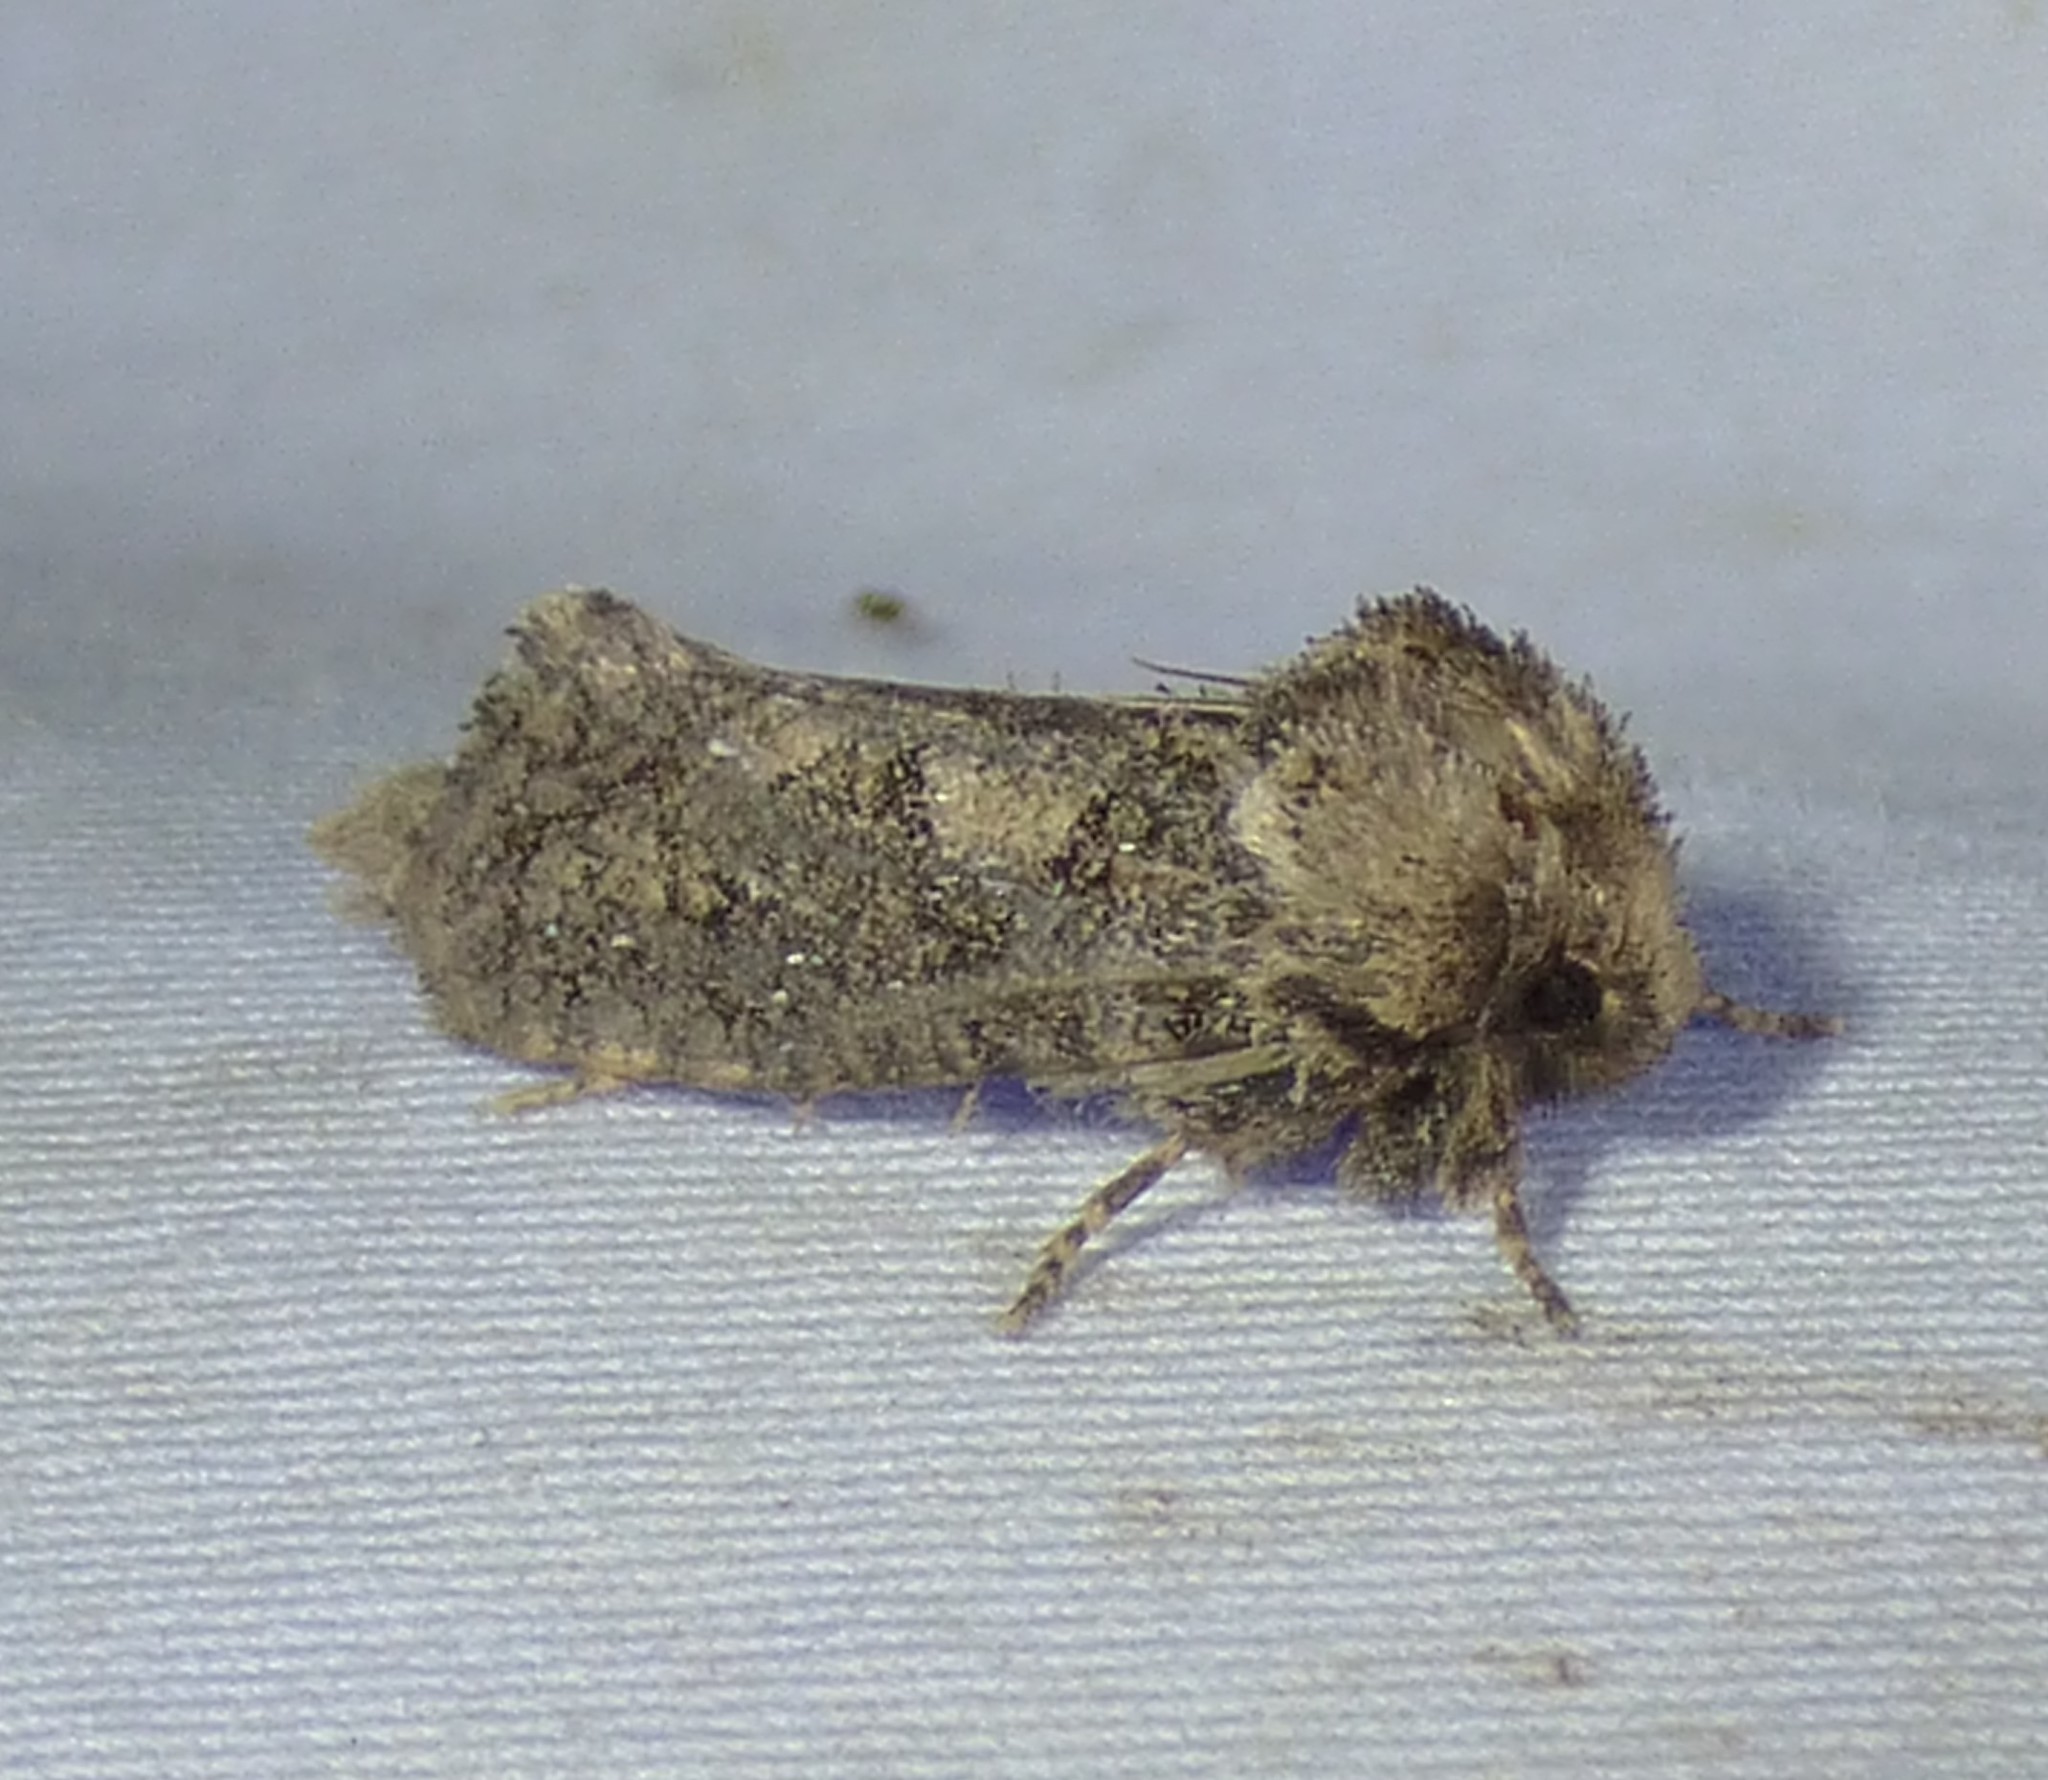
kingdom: Animalia
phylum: Arthropoda
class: Insecta
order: Lepidoptera
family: Tineidae
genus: Acrolophus
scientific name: Acrolophus arcanella
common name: Arcane grass tubeworm moth
